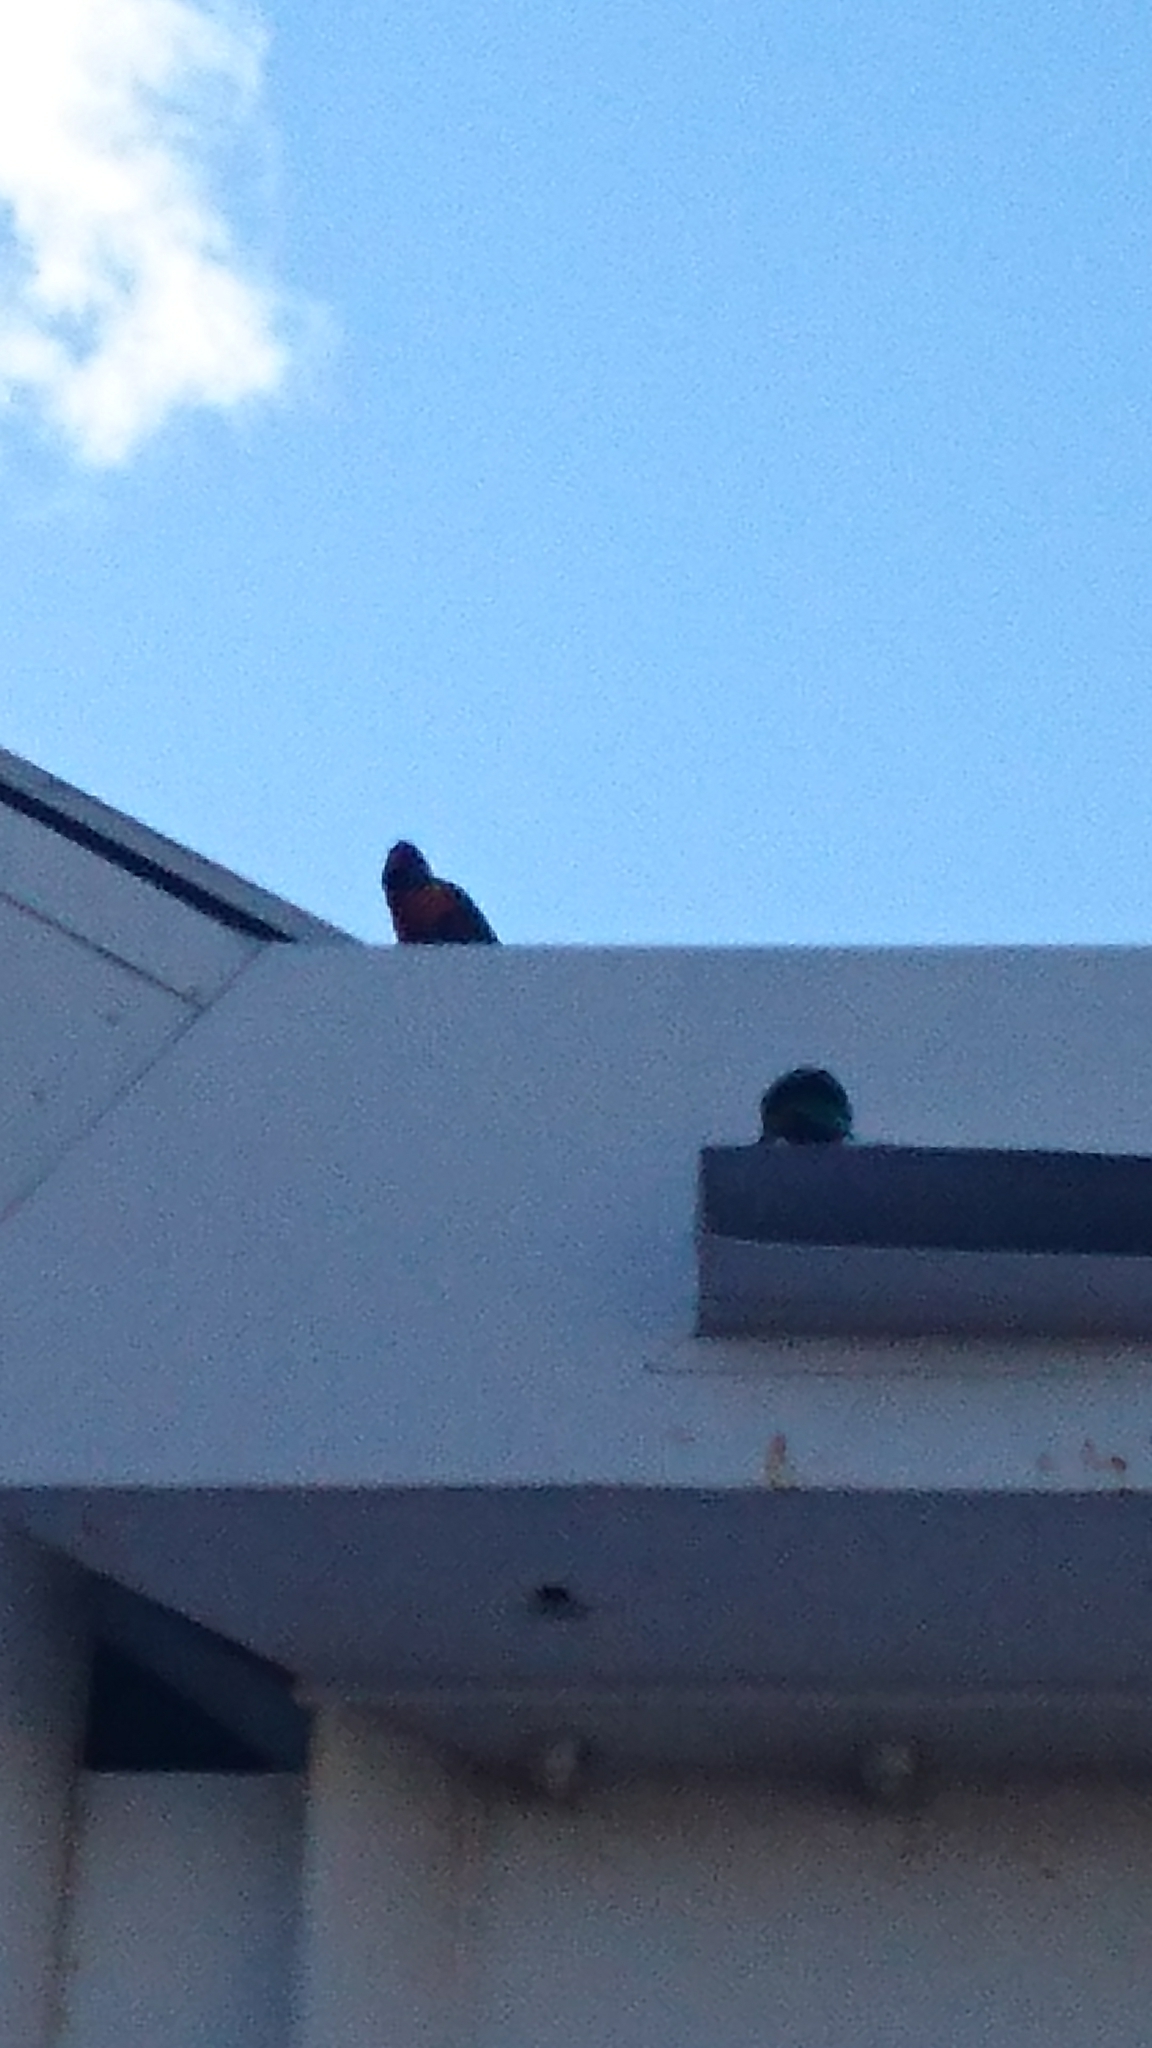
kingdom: Animalia
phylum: Chordata
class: Aves
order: Psittaciformes
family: Psittacidae
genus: Trichoglossus
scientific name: Trichoglossus haematodus
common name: Coconut lorikeet
